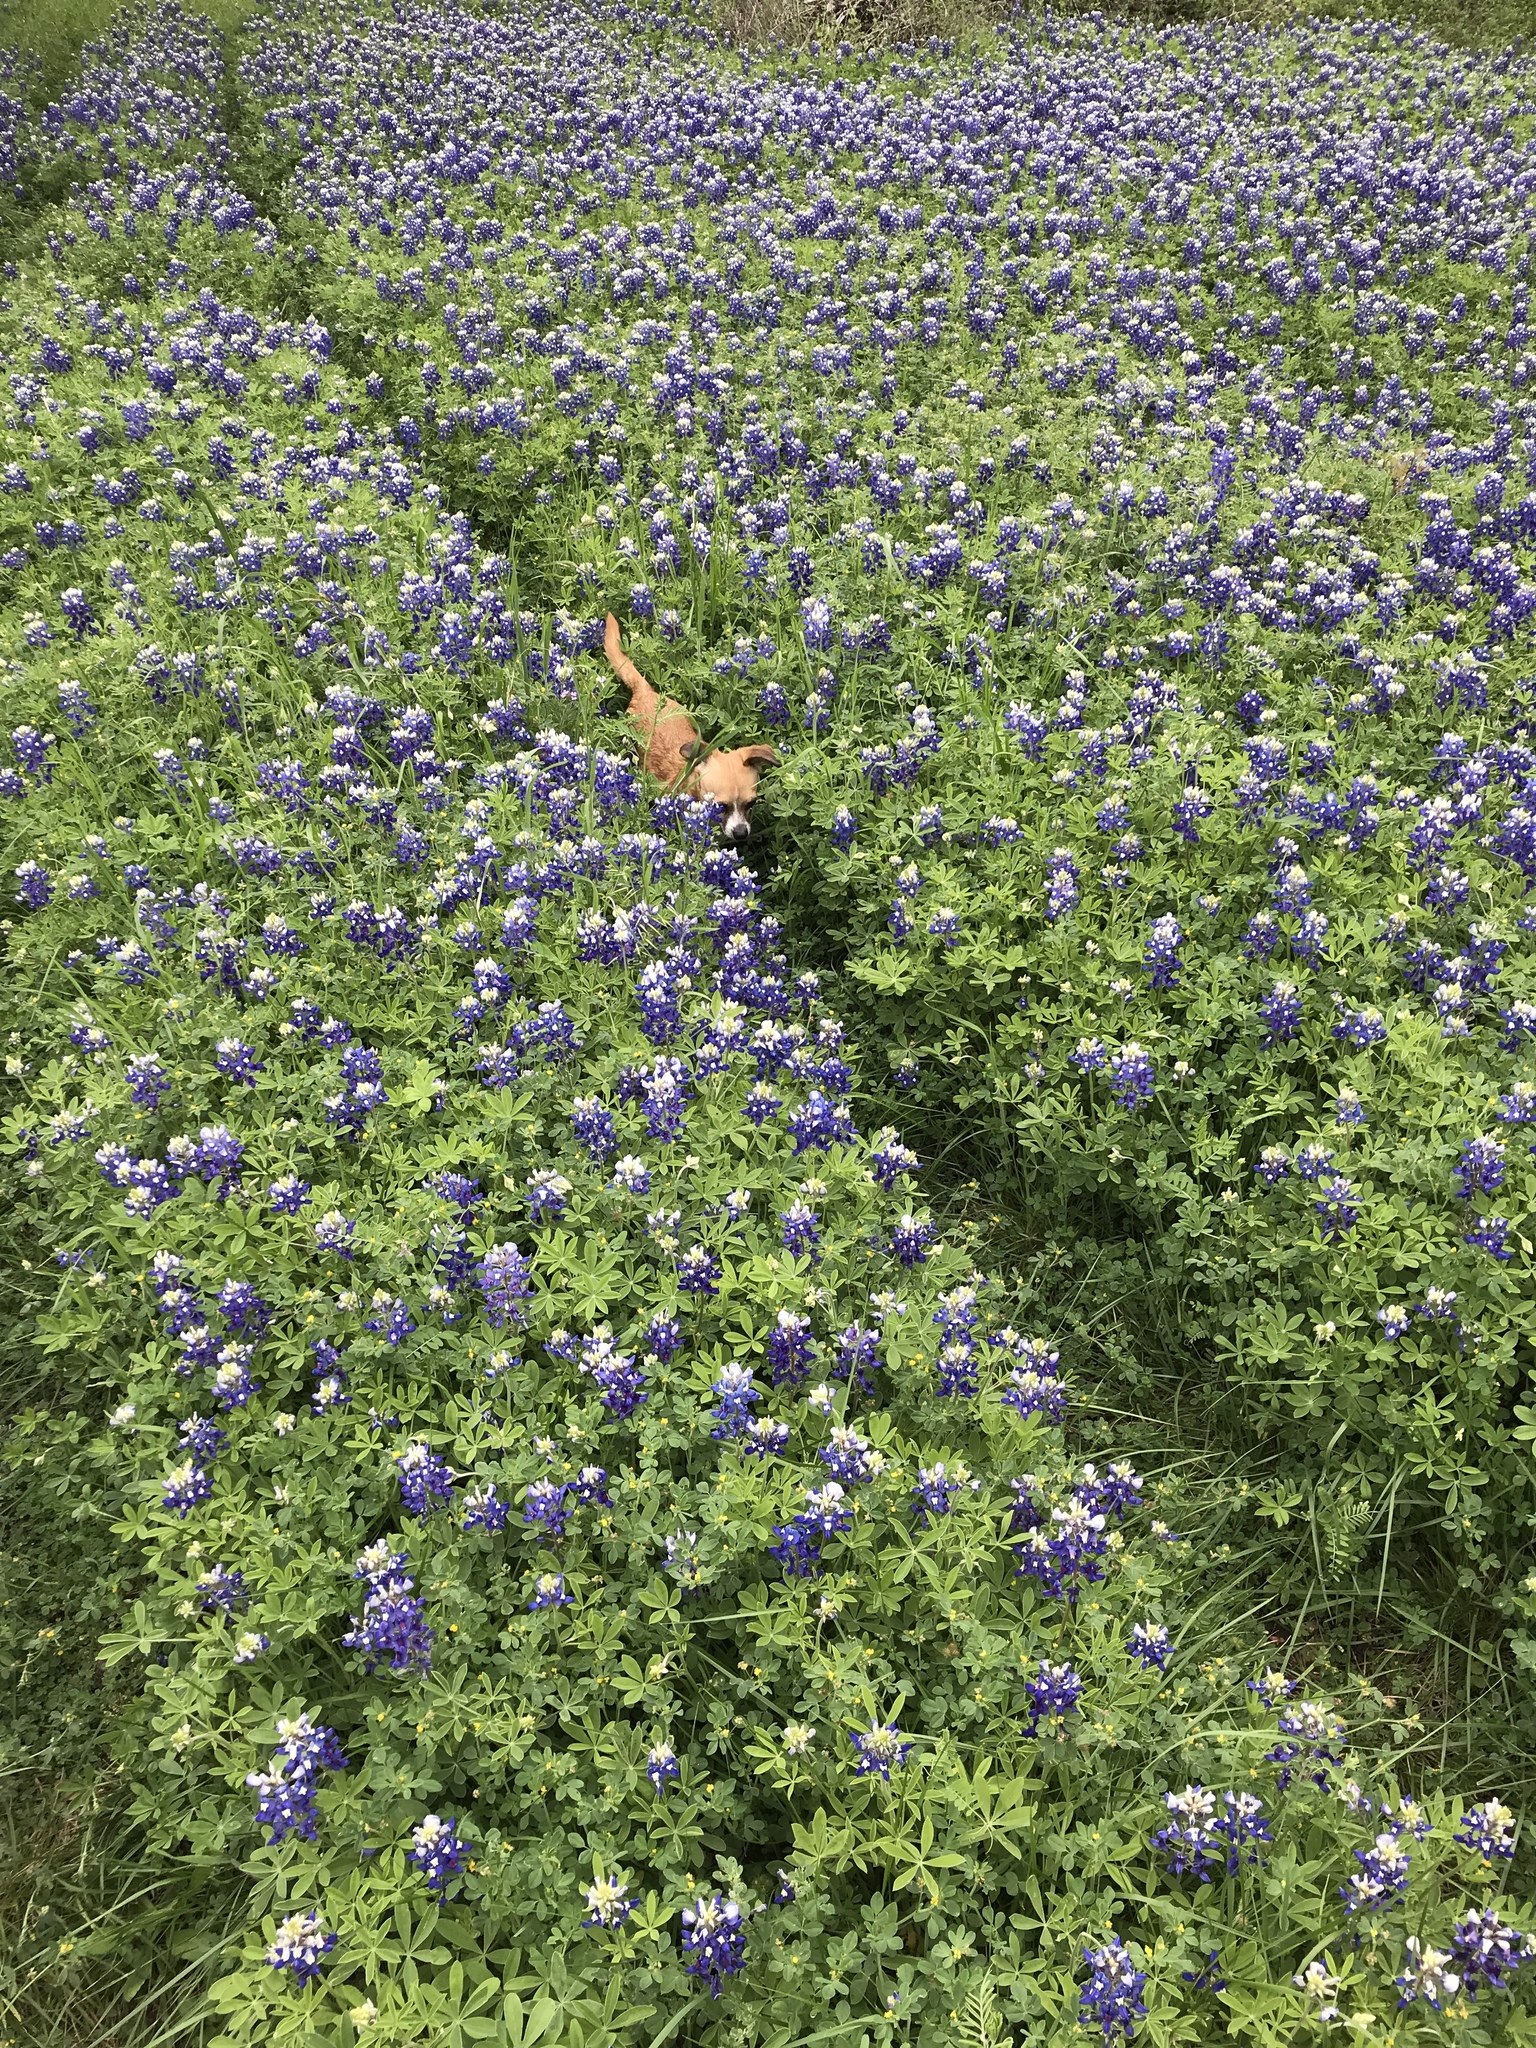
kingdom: Plantae
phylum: Tracheophyta
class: Magnoliopsida
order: Fabales
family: Fabaceae
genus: Lupinus
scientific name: Lupinus texensis
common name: Texas bluebonnet
